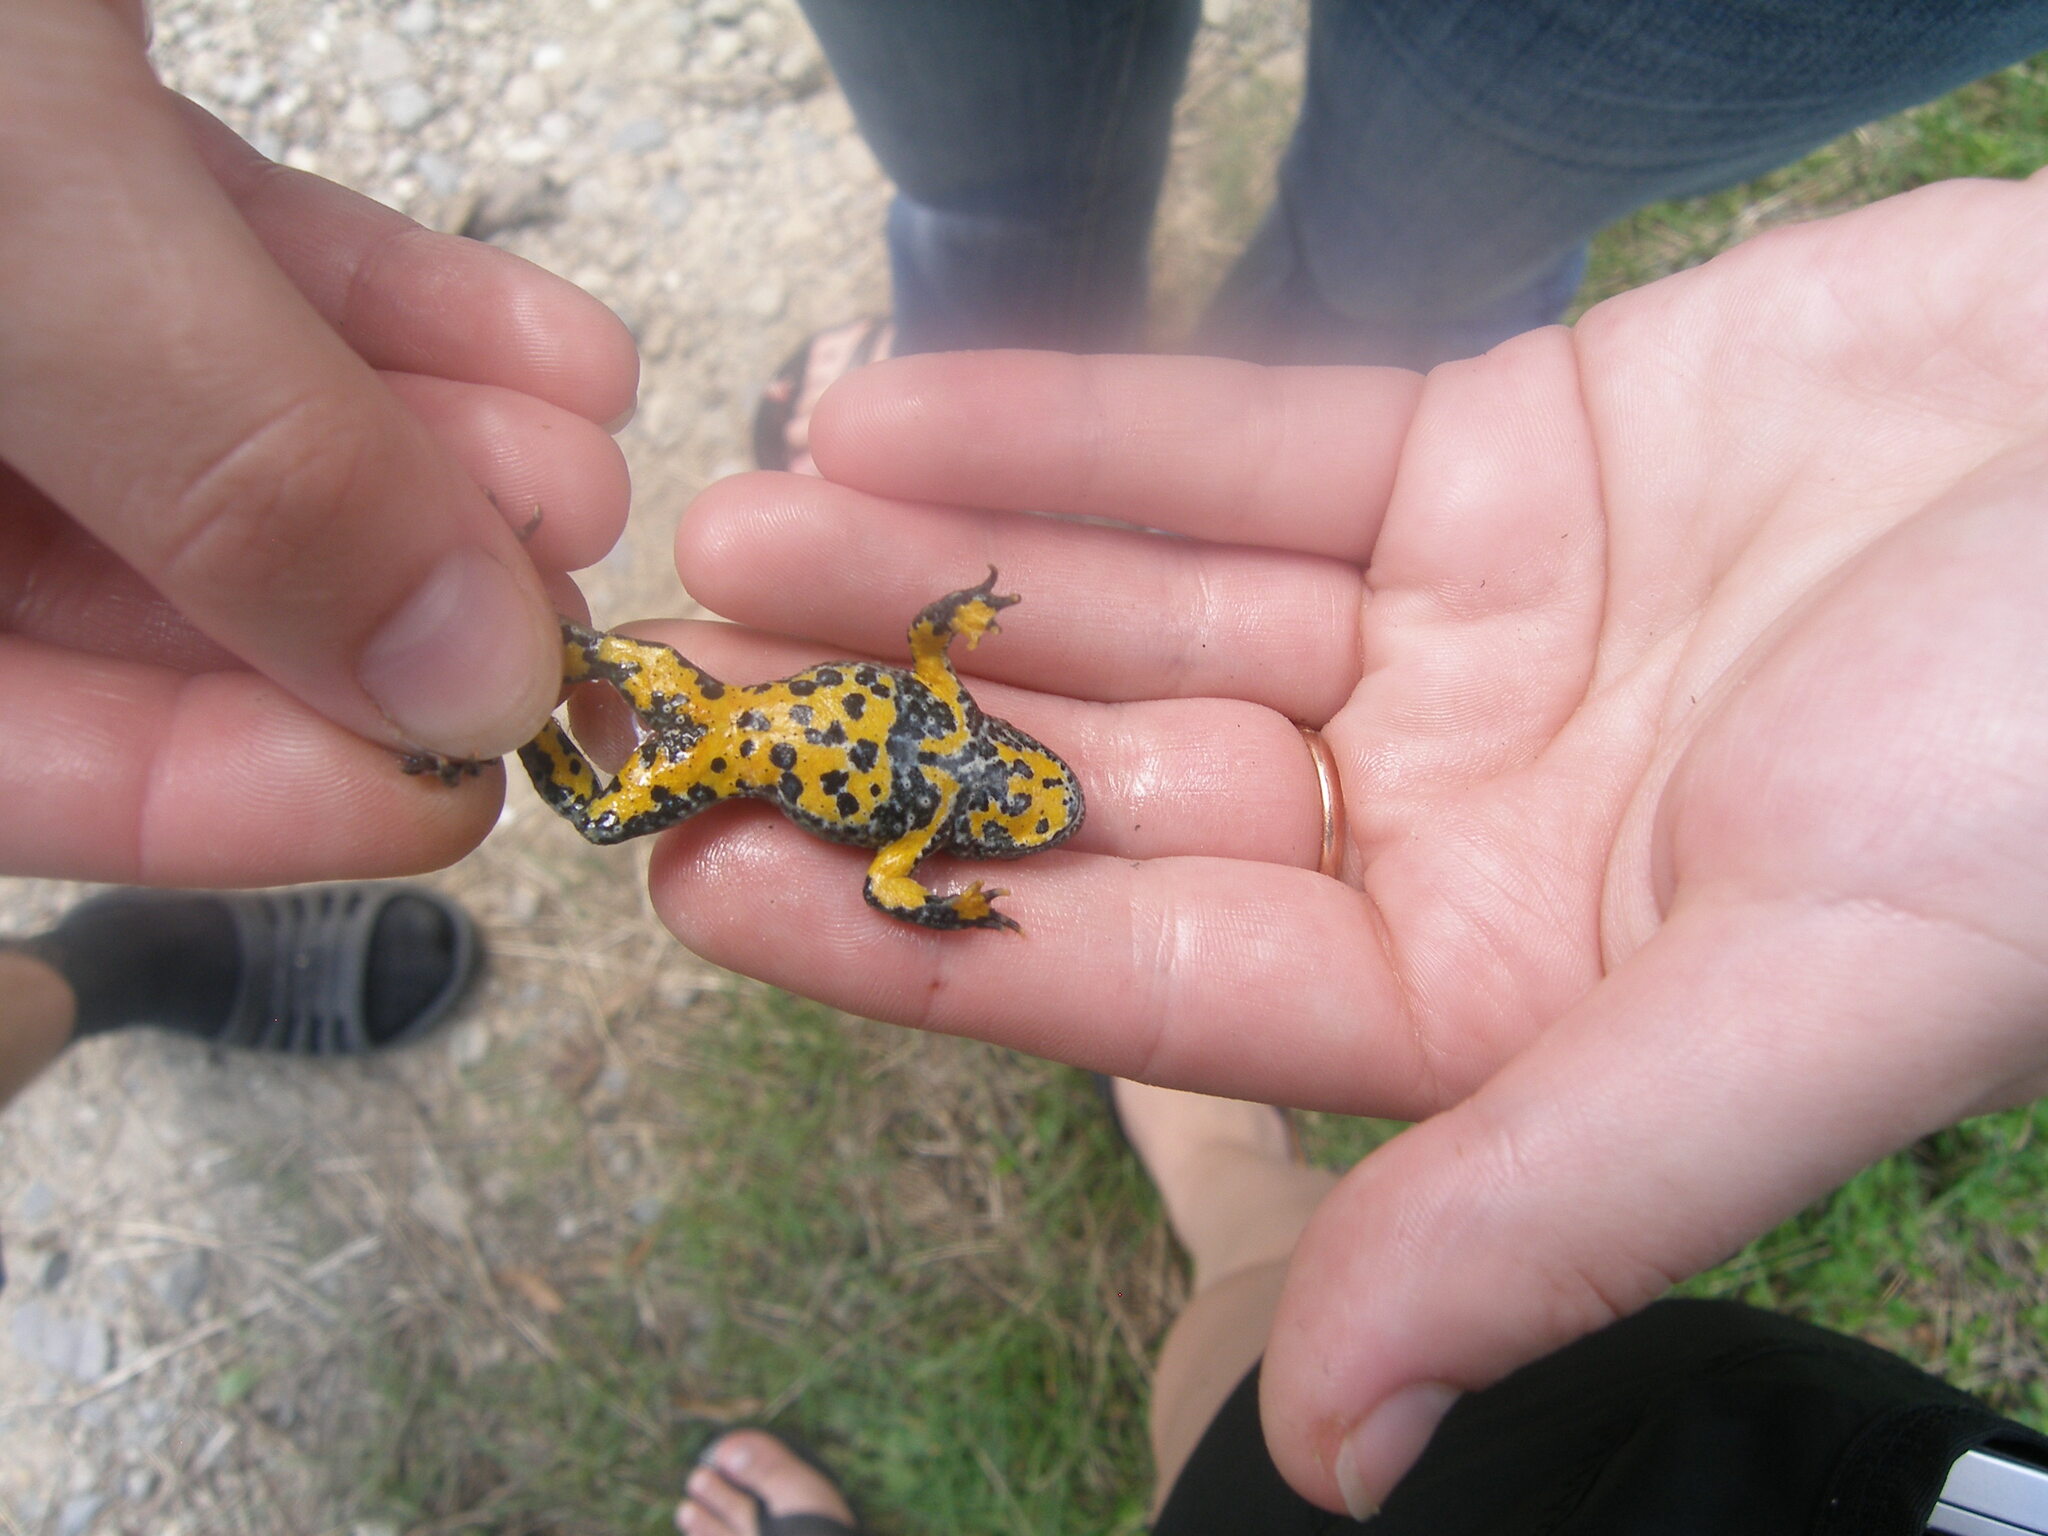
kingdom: Animalia
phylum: Chordata
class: Amphibia
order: Anura
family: Bombinatoridae
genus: Bombina
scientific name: Bombina variegata
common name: Yellow-bellied toad
